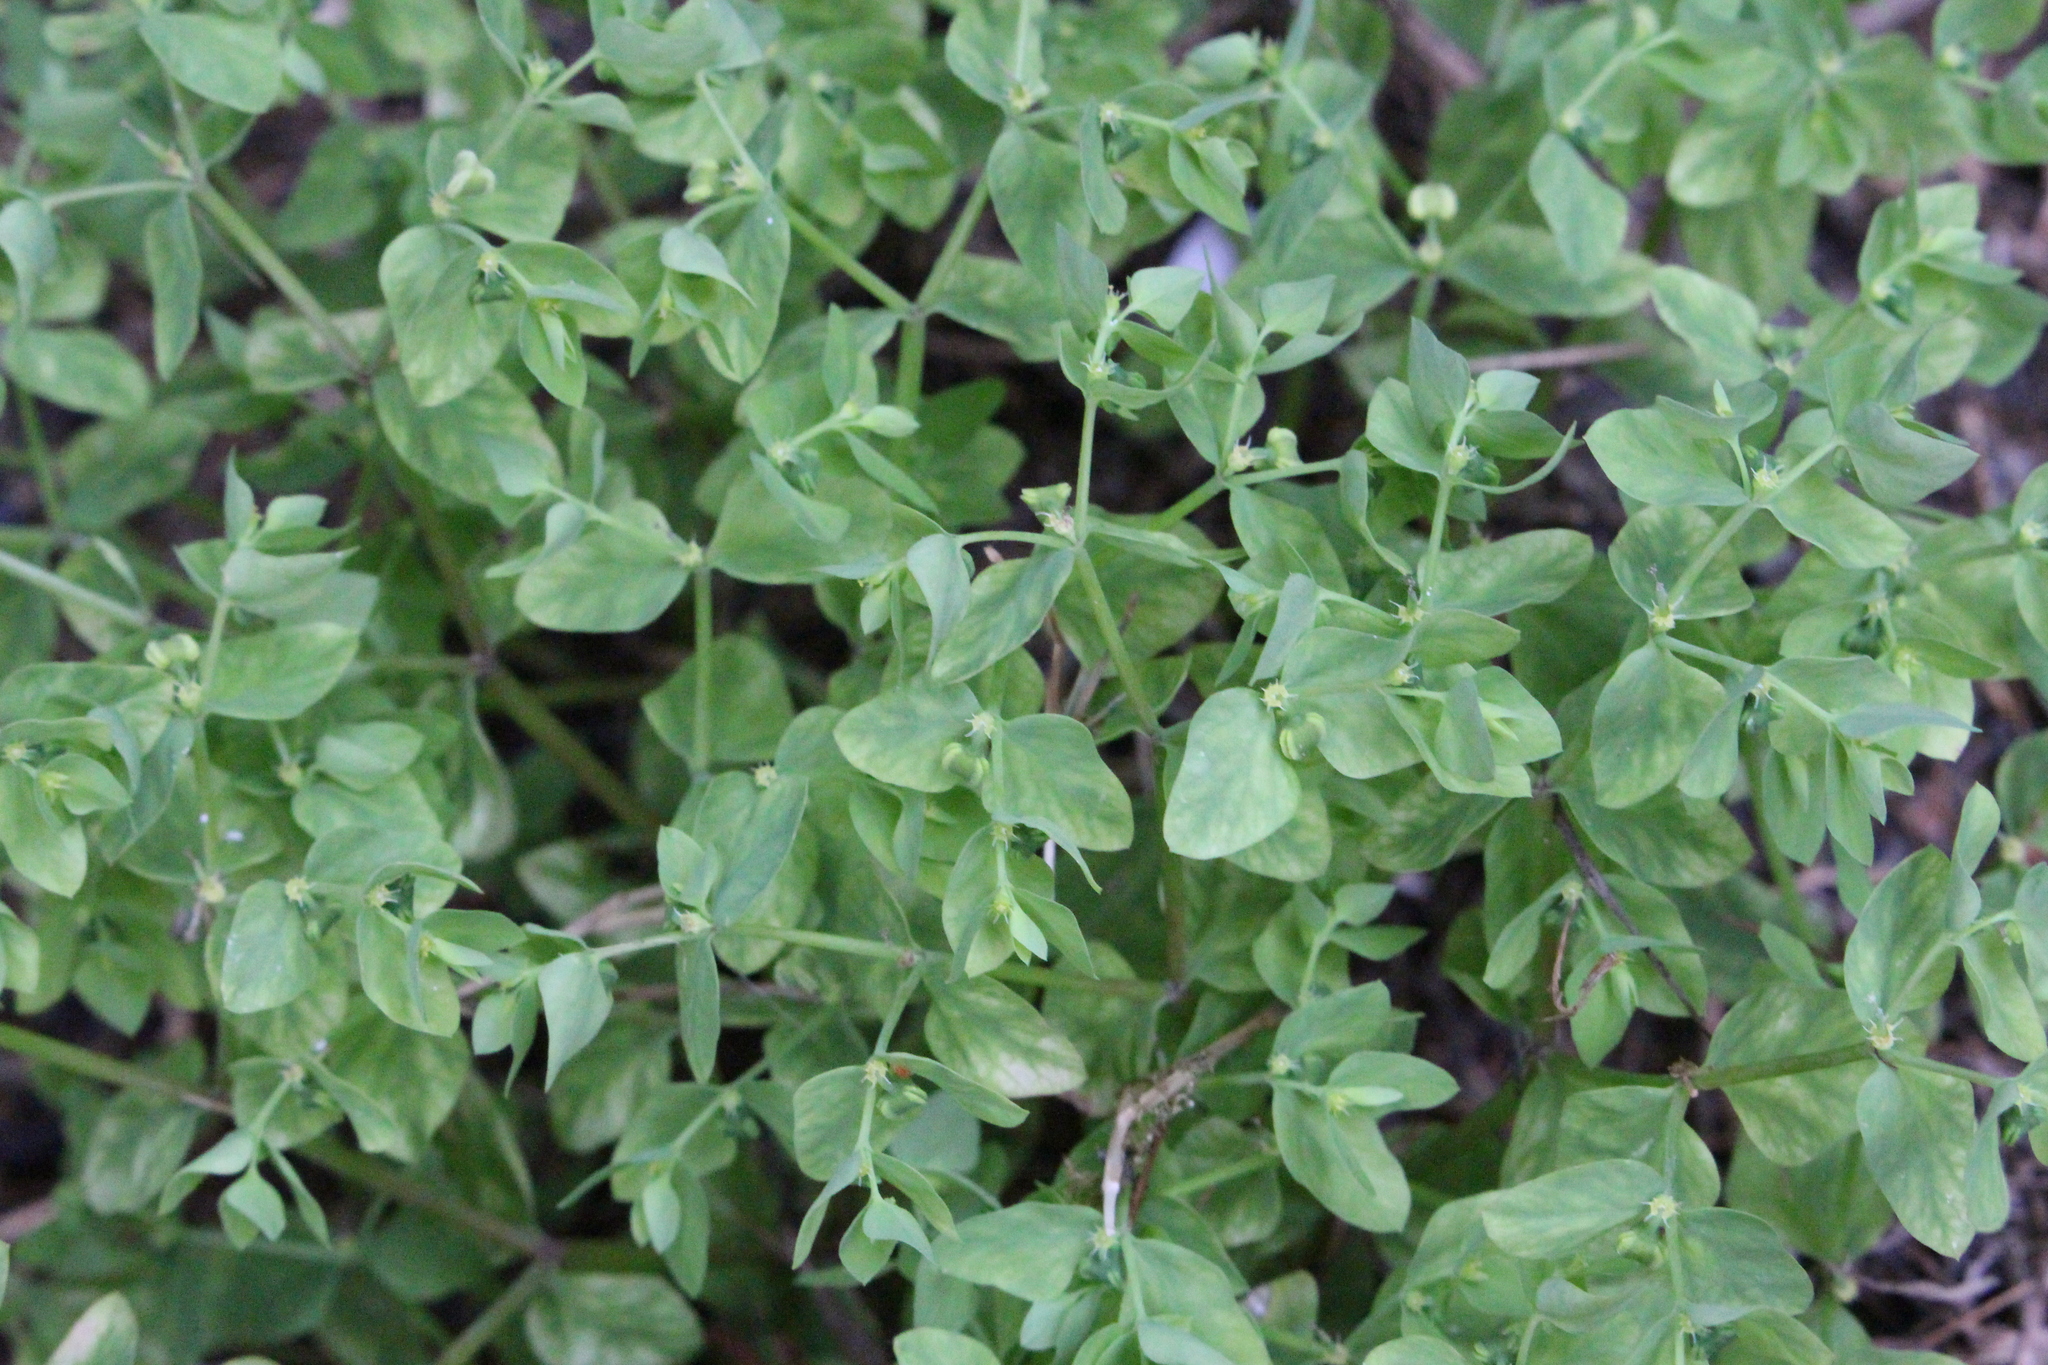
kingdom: Plantae
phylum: Tracheophyta
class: Magnoliopsida
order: Malpighiales
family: Euphorbiaceae
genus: Euphorbia
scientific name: Euphorbia peplus
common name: Petty spurge
